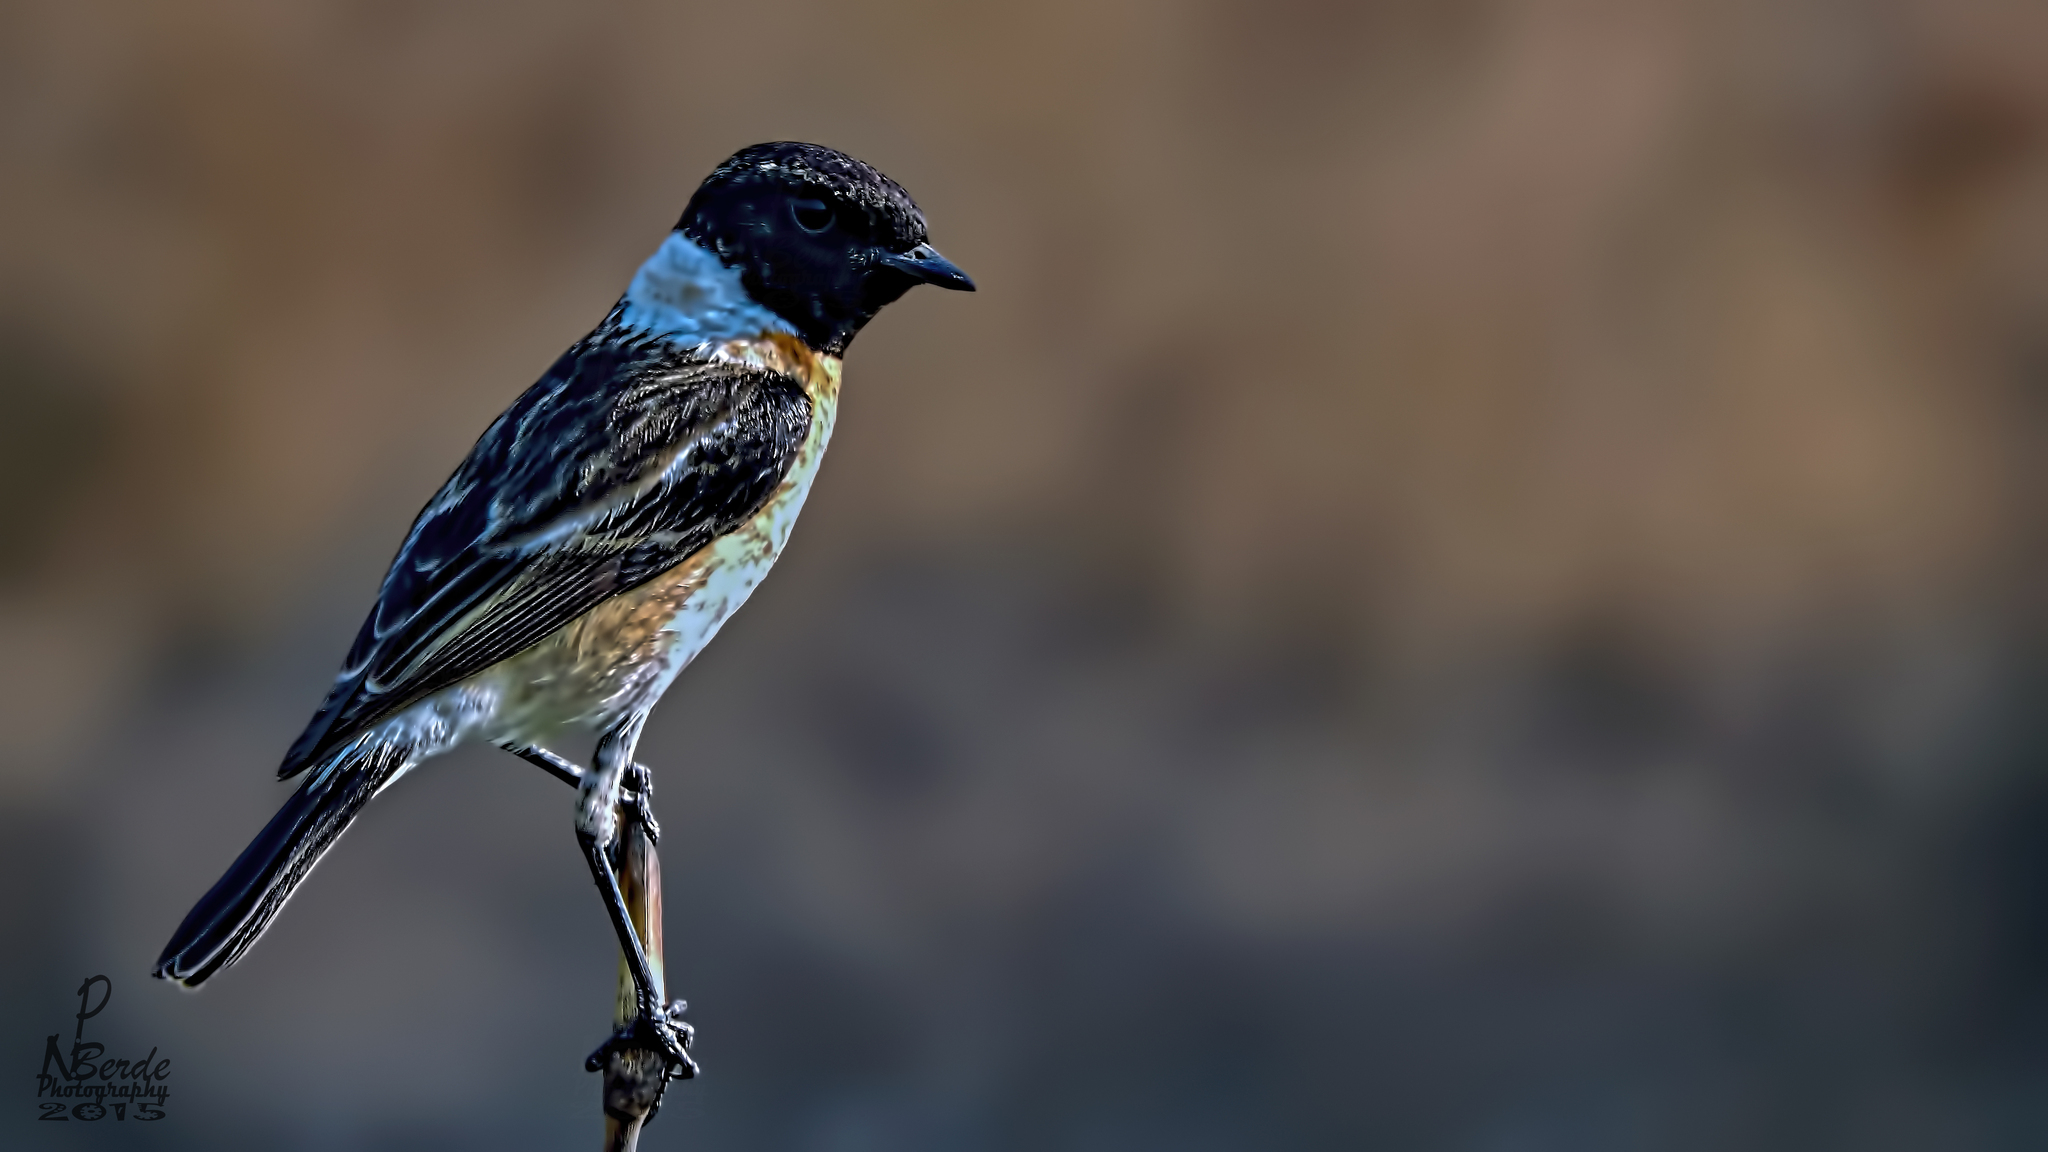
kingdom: Animalia
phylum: Chordata
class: Aves
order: Passeriformes
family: Muscicapidae
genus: Saxicola
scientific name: Saxicola maurus
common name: Siberian stonechat
